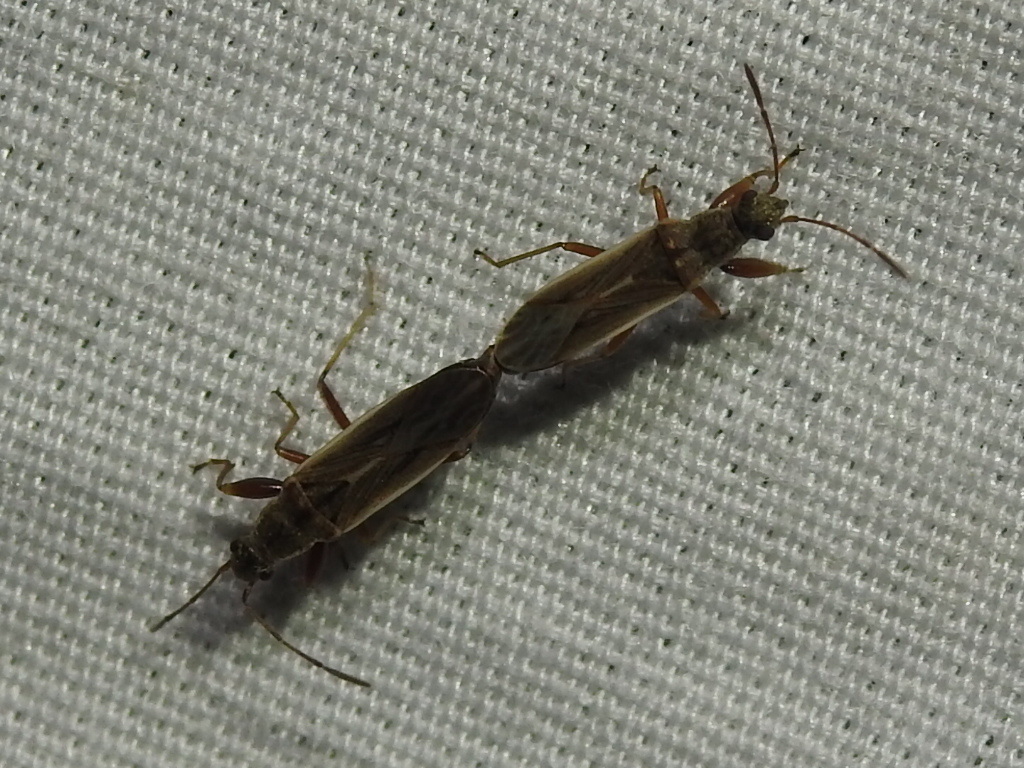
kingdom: Animalia
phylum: Arthropoda
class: Insecta
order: Hemiptera
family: Rhyparochromidae
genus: Paromius
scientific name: Paromius longulus
